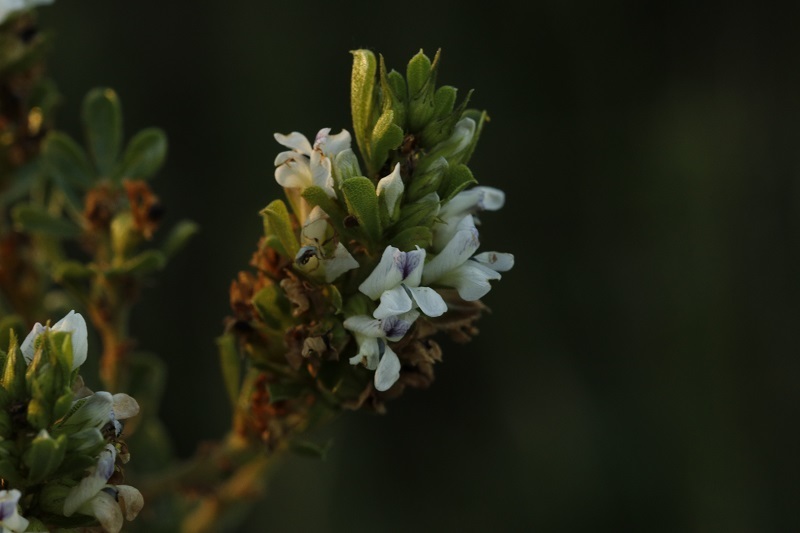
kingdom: Plantae
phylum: Tracheophyta
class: Magnoliopsida
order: Fabales
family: Fabaceae
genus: Psoralea
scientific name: Psoralea prodiens
